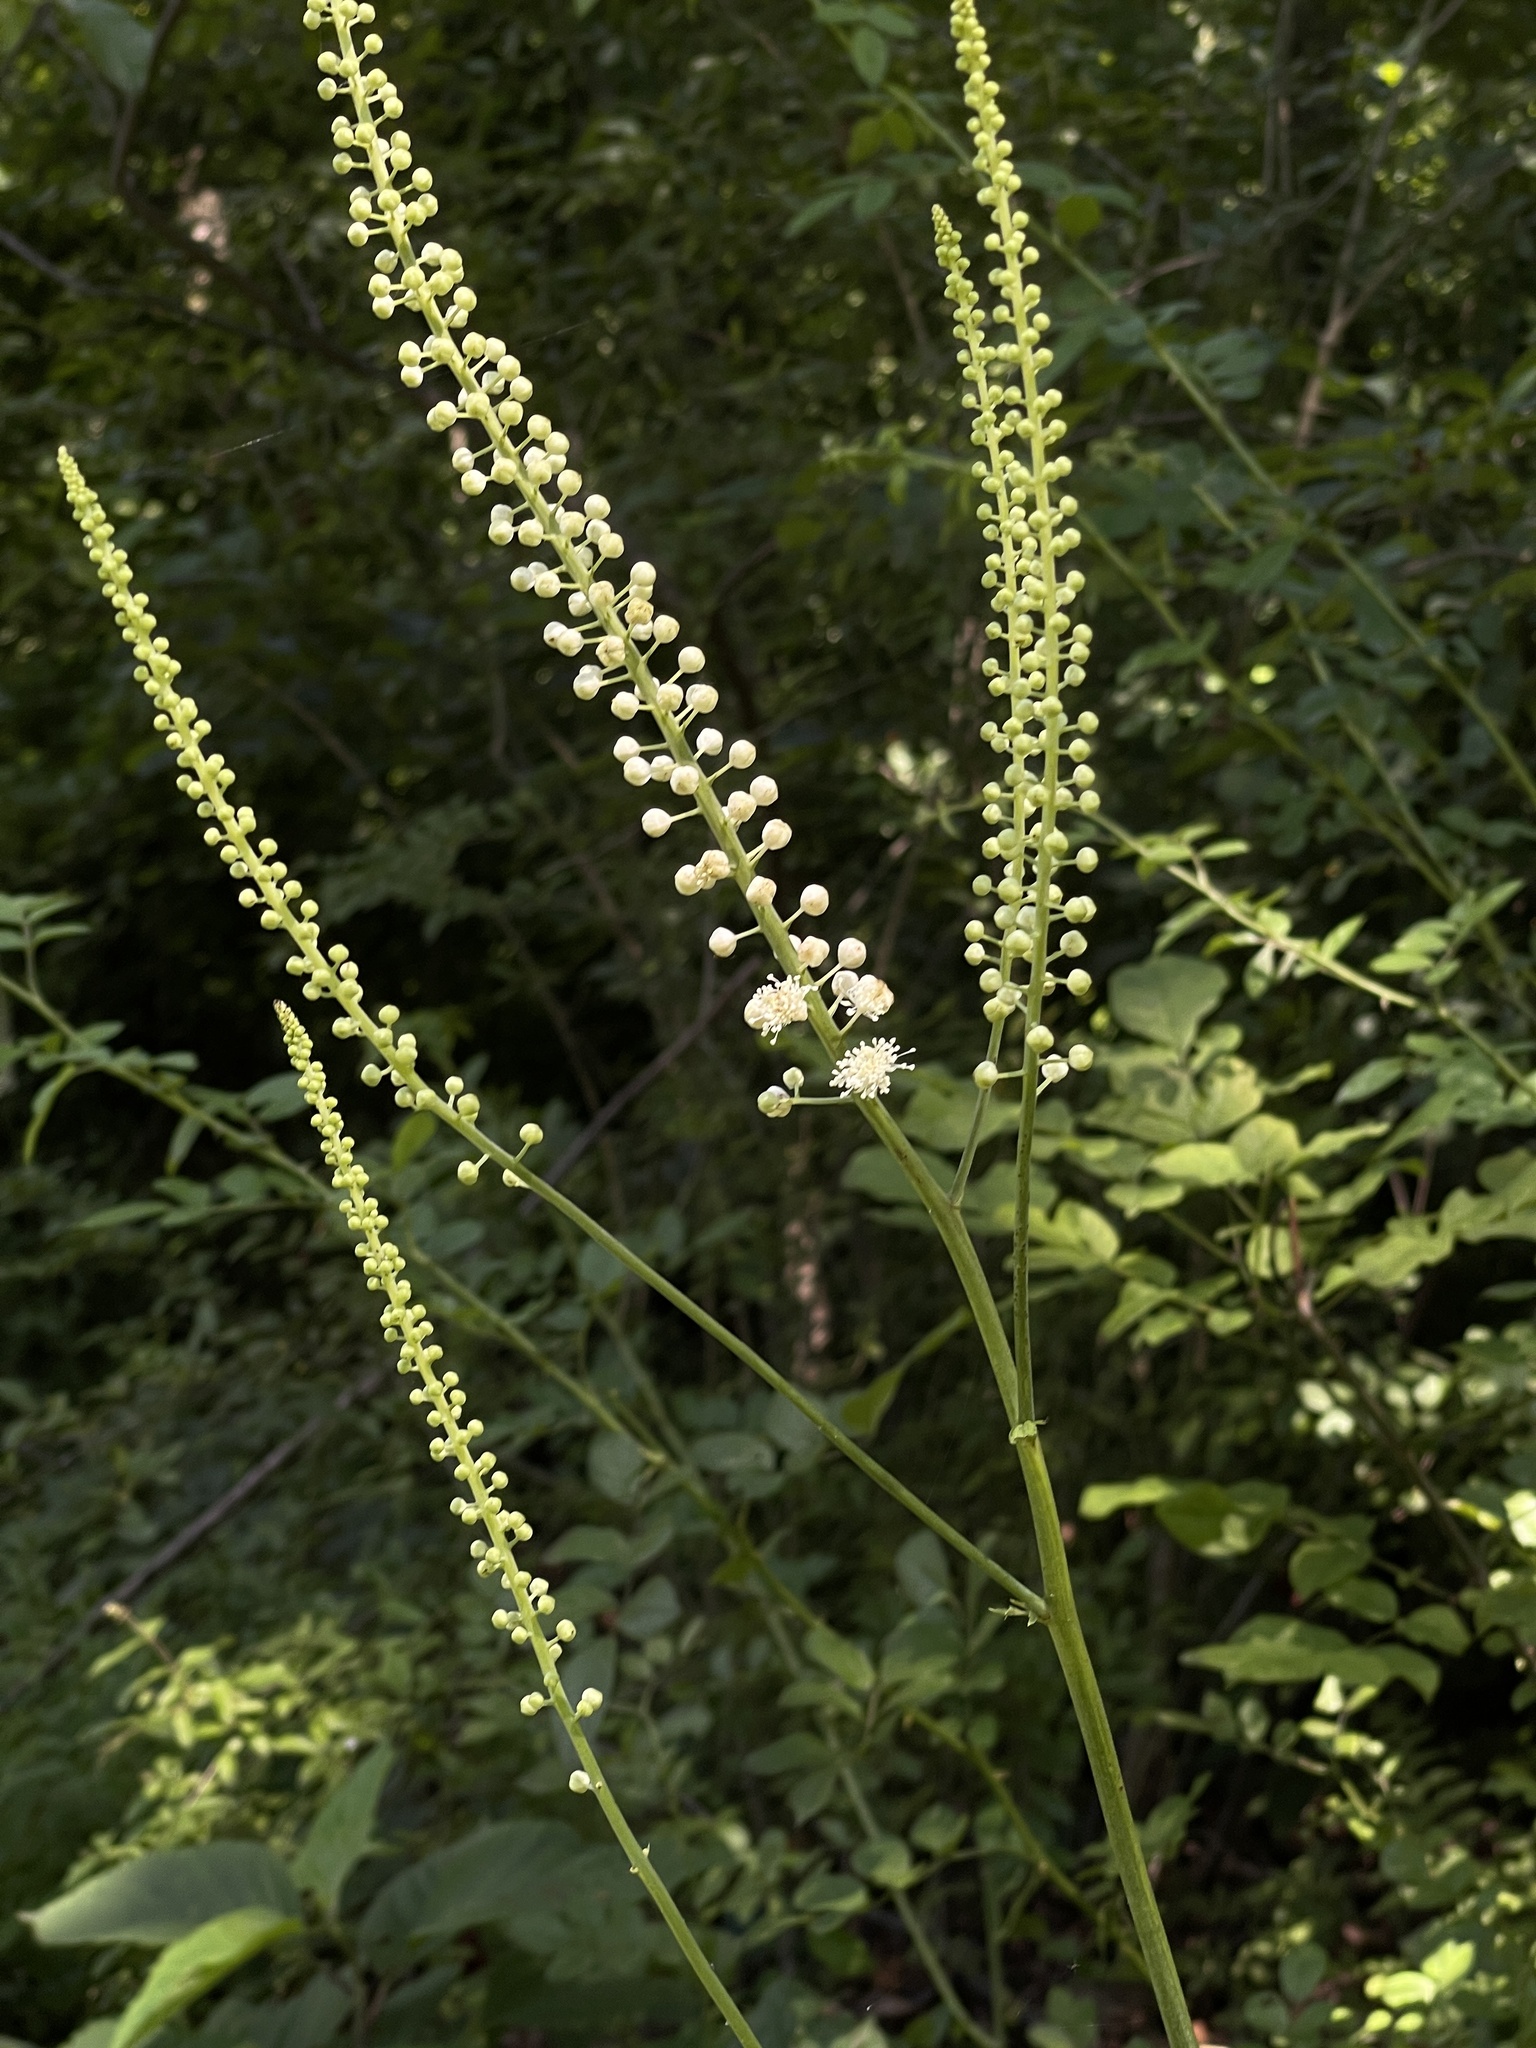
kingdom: Plantae
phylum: Tracheophyta
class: Magnoliopsida
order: Ranunculales
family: Ranunculaceae
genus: Actaea
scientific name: Actaea racemosa
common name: Black cohosh
